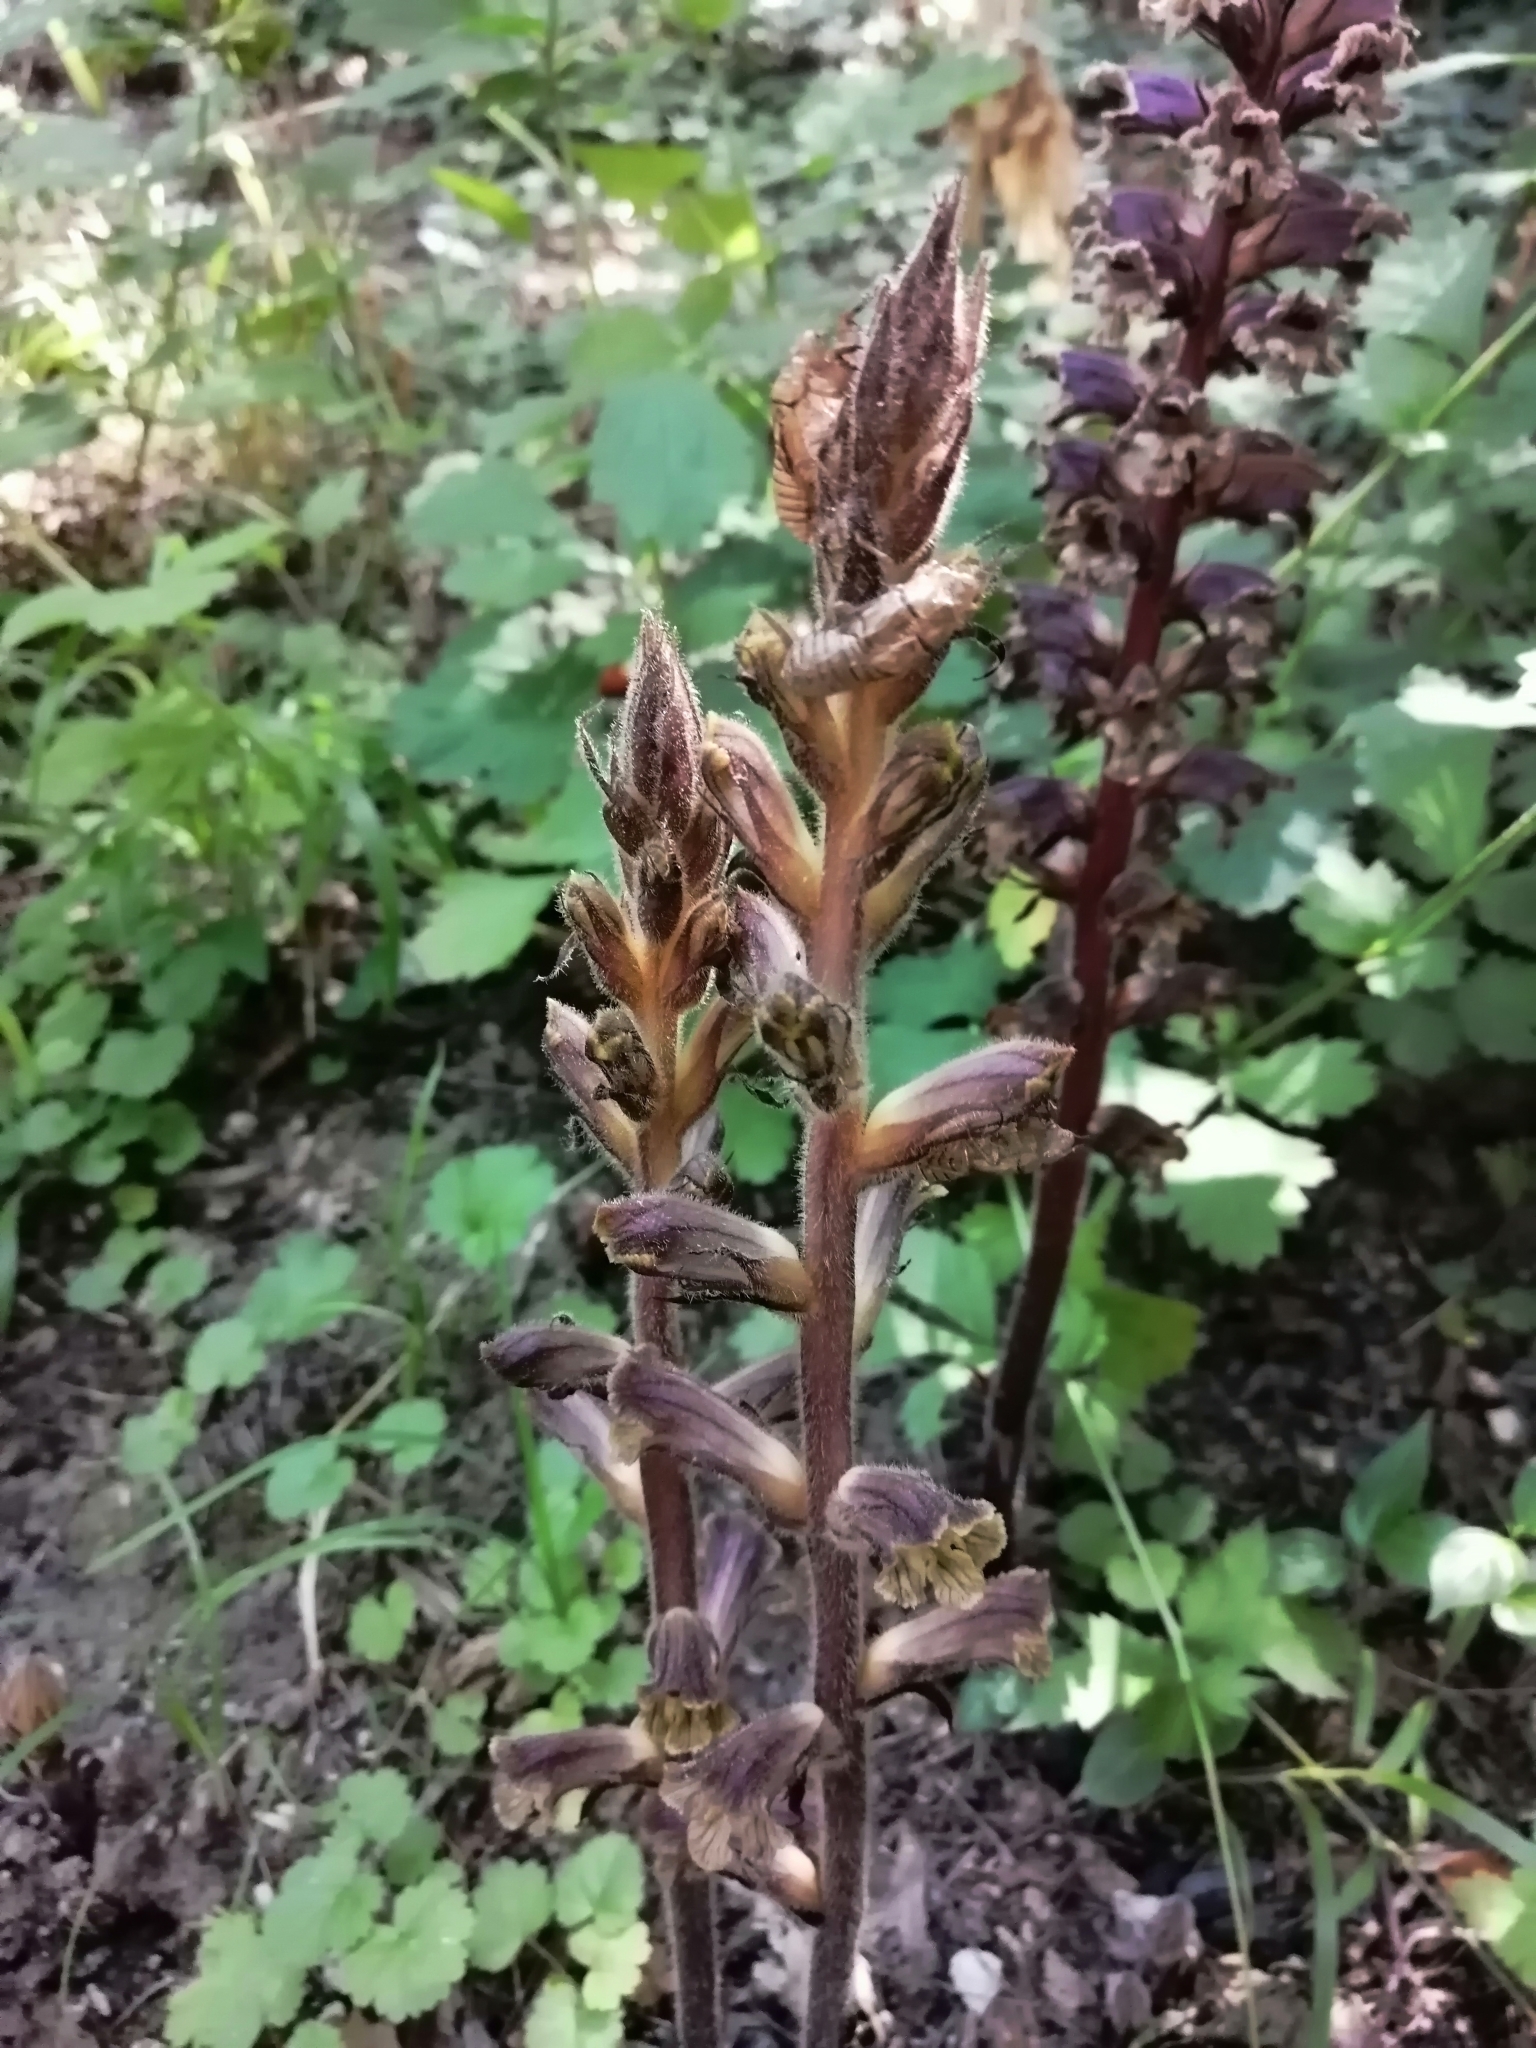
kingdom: Plantae
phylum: Tracheophyta
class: Magnoliopsida
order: Lamiales
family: Orobanchaceae
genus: Orobanche
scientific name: Orobanche laxissima
